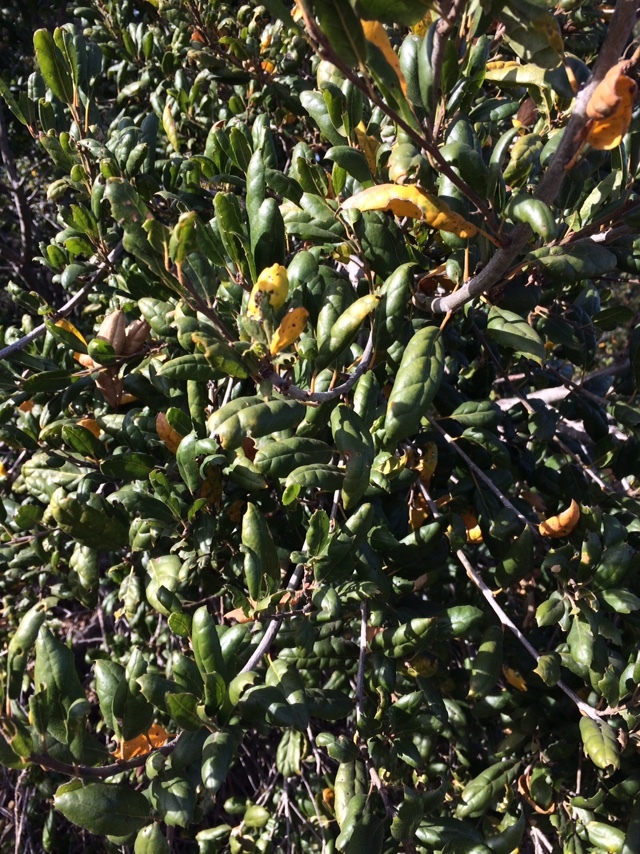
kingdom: Plantae
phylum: Tracheophyta
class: Magnoliopsida
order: Fagales
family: Fagaceae
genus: Quercus
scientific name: Quercus agrifolia
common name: California live oak
